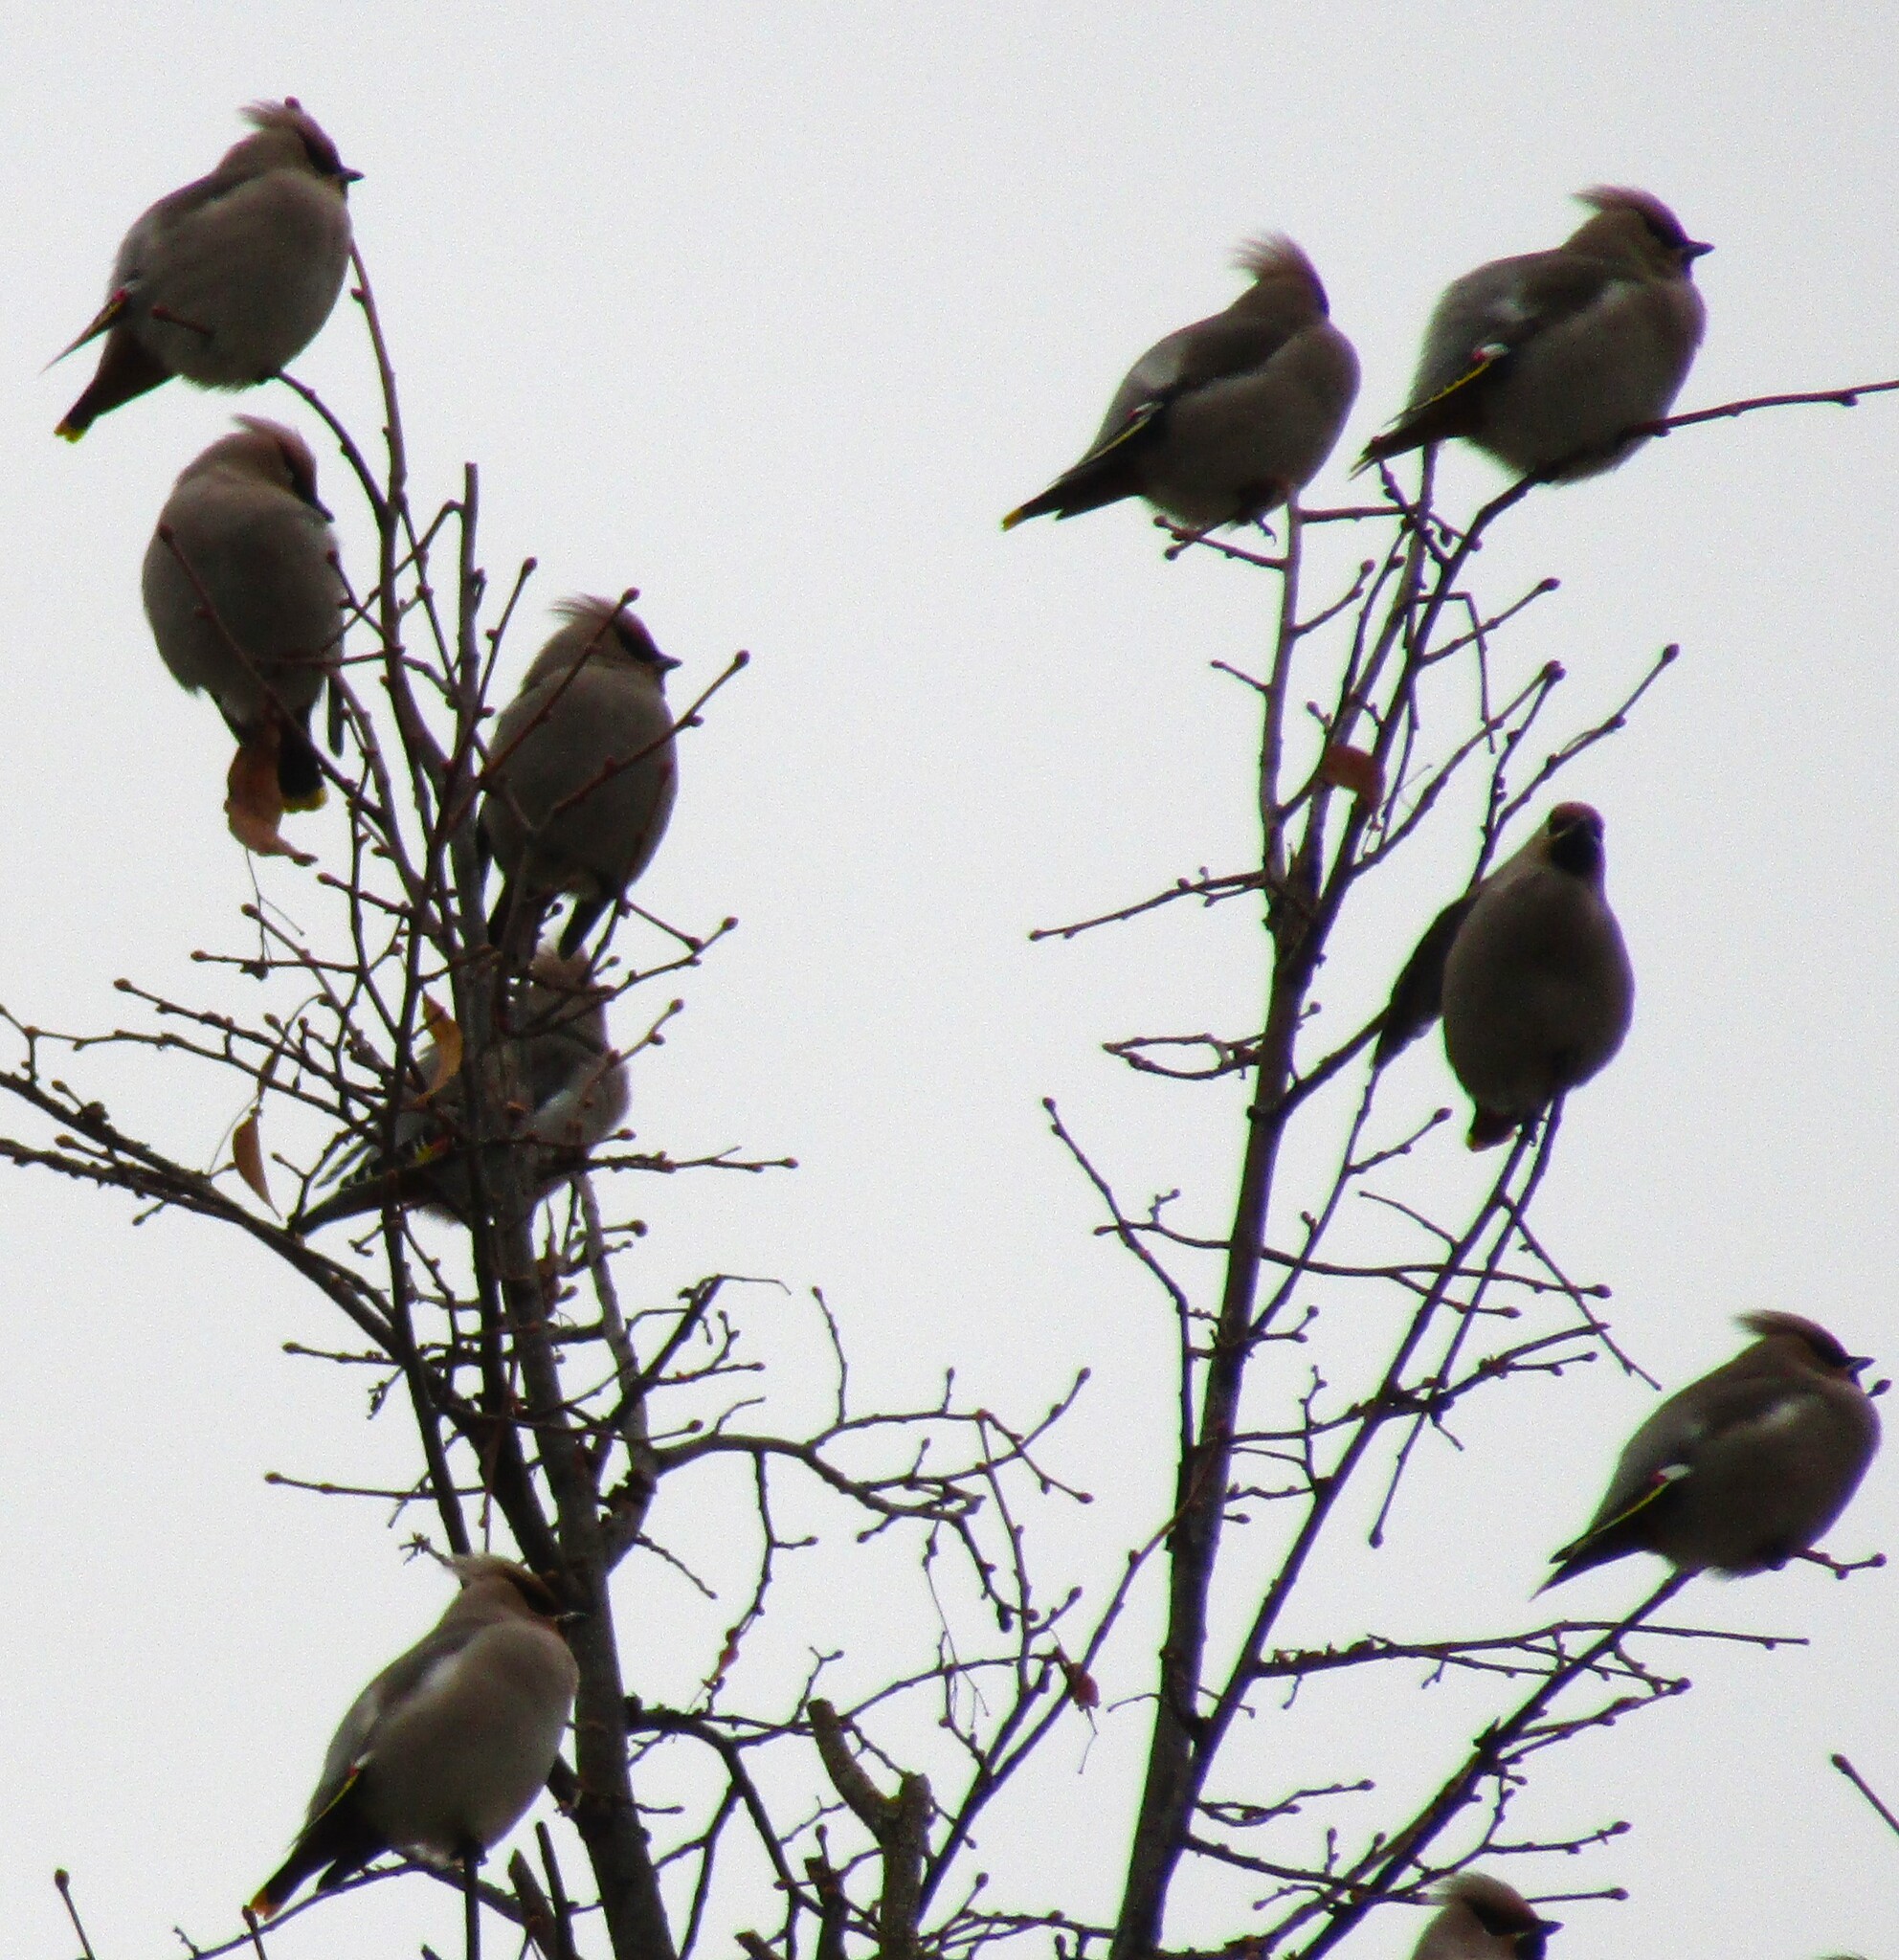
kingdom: Animalia
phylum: Chordata
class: Aves
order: Passeriformes
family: Bombycillidae
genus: Bombycilla
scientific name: Bombycilla garrulus
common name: Bohemian waxwing
